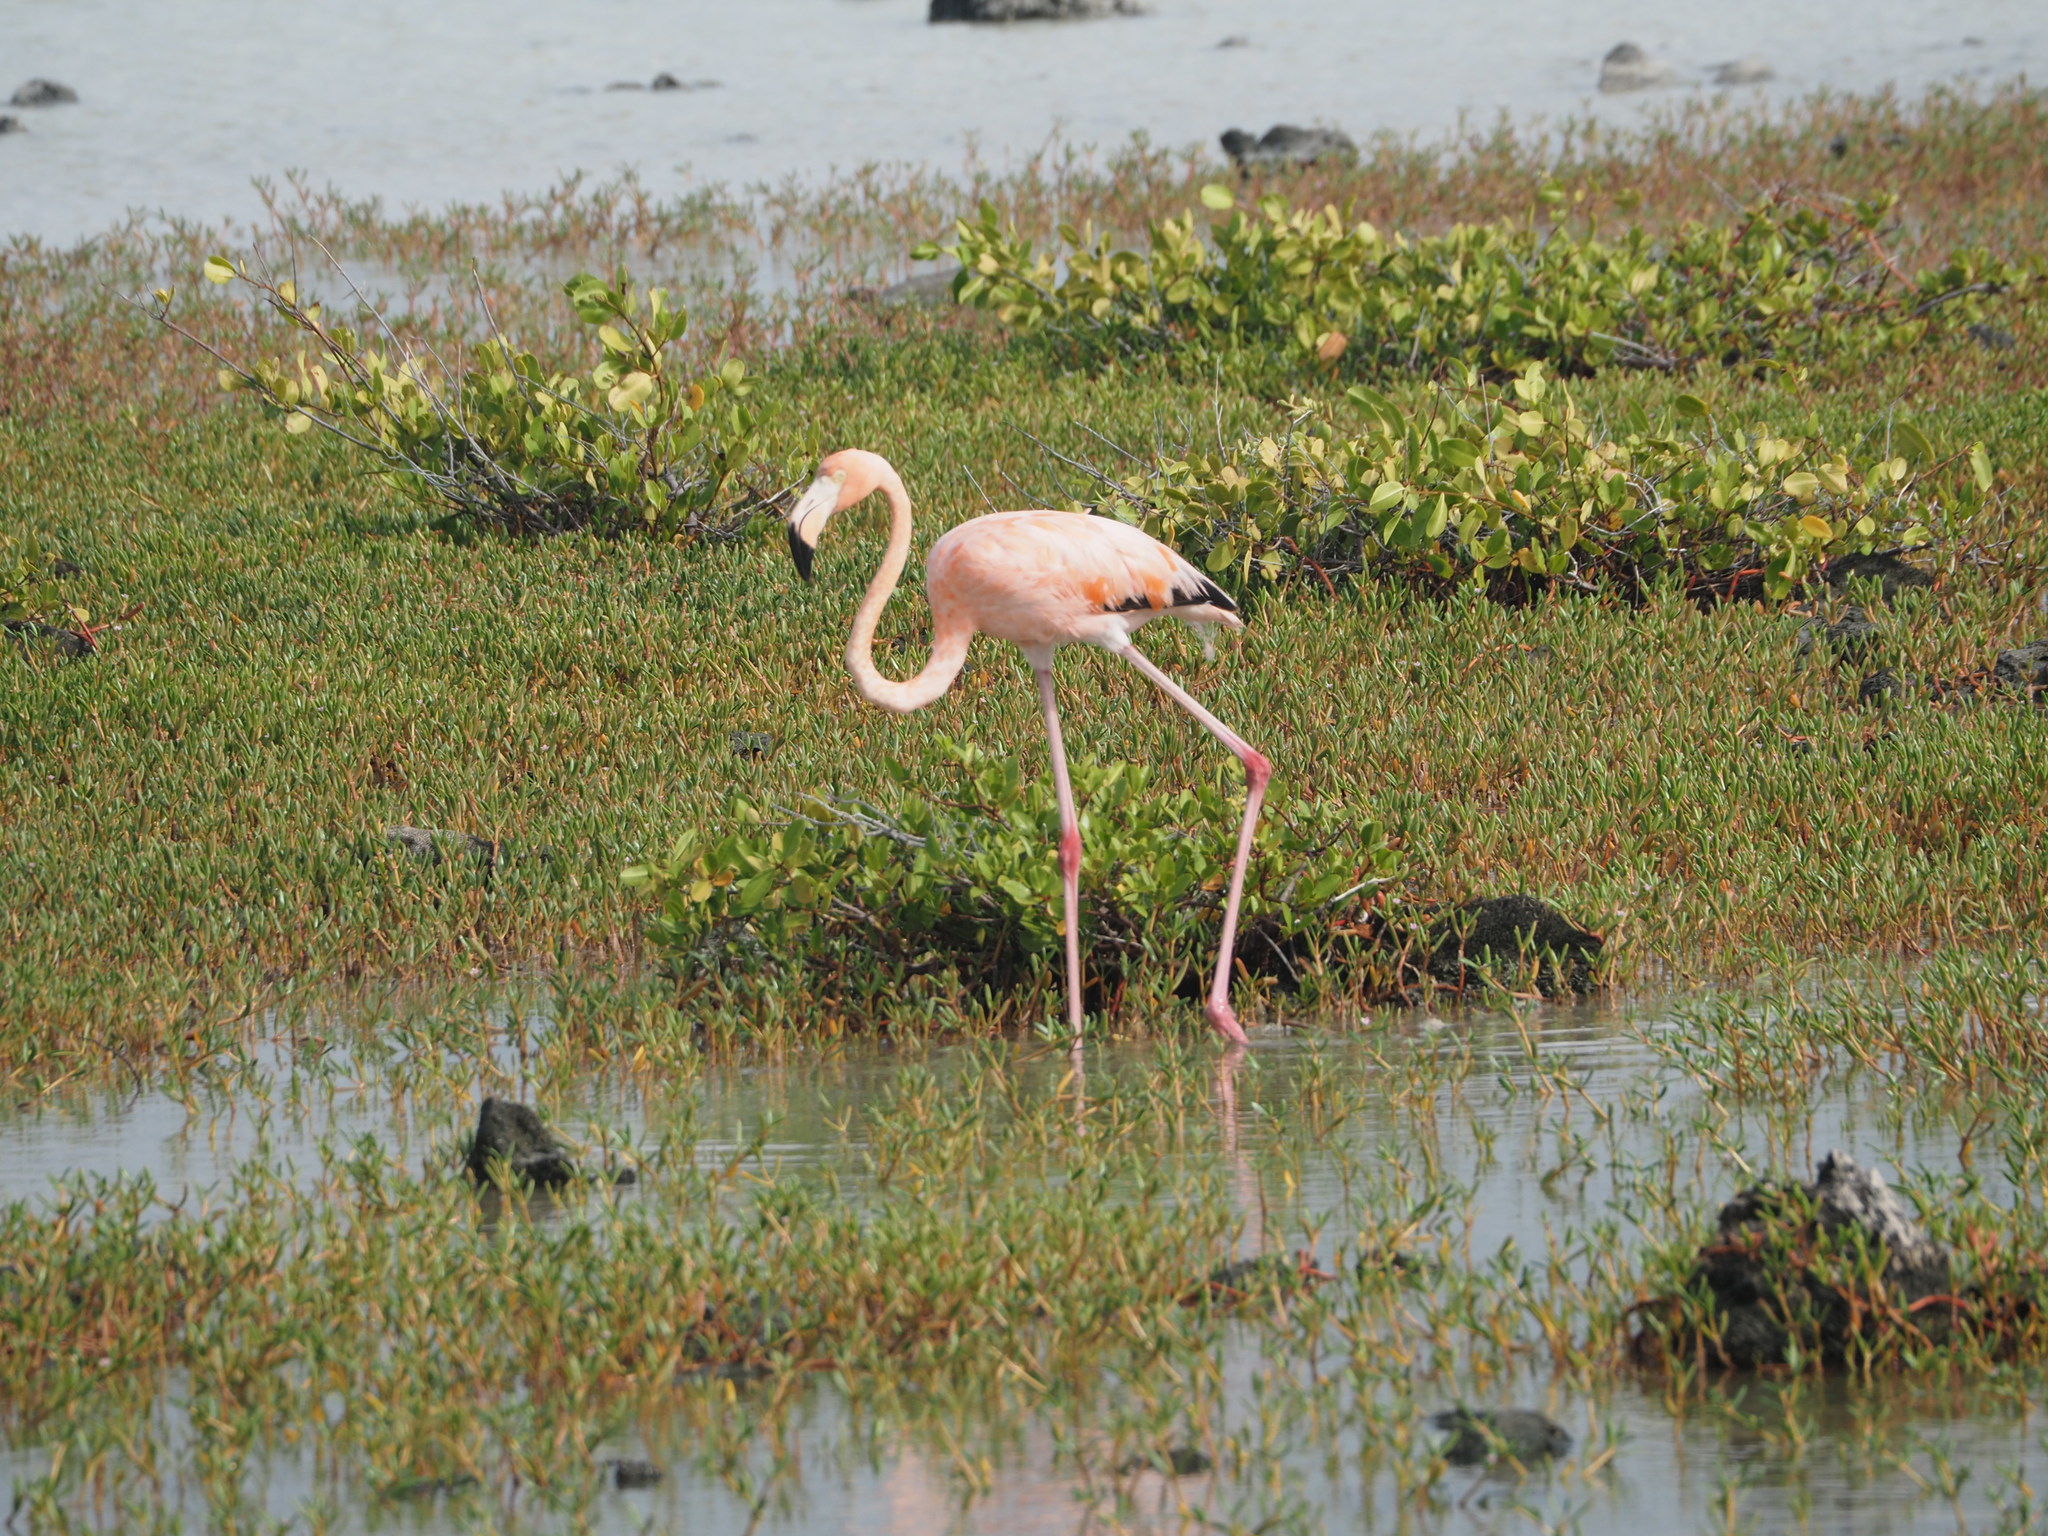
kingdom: Animalia
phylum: Chordata
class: Aves
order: Phoenicopteriformes
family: Phoenicopteridae
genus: Phoenicopterus
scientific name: Phoenicopterus ruber
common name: American flamingo
